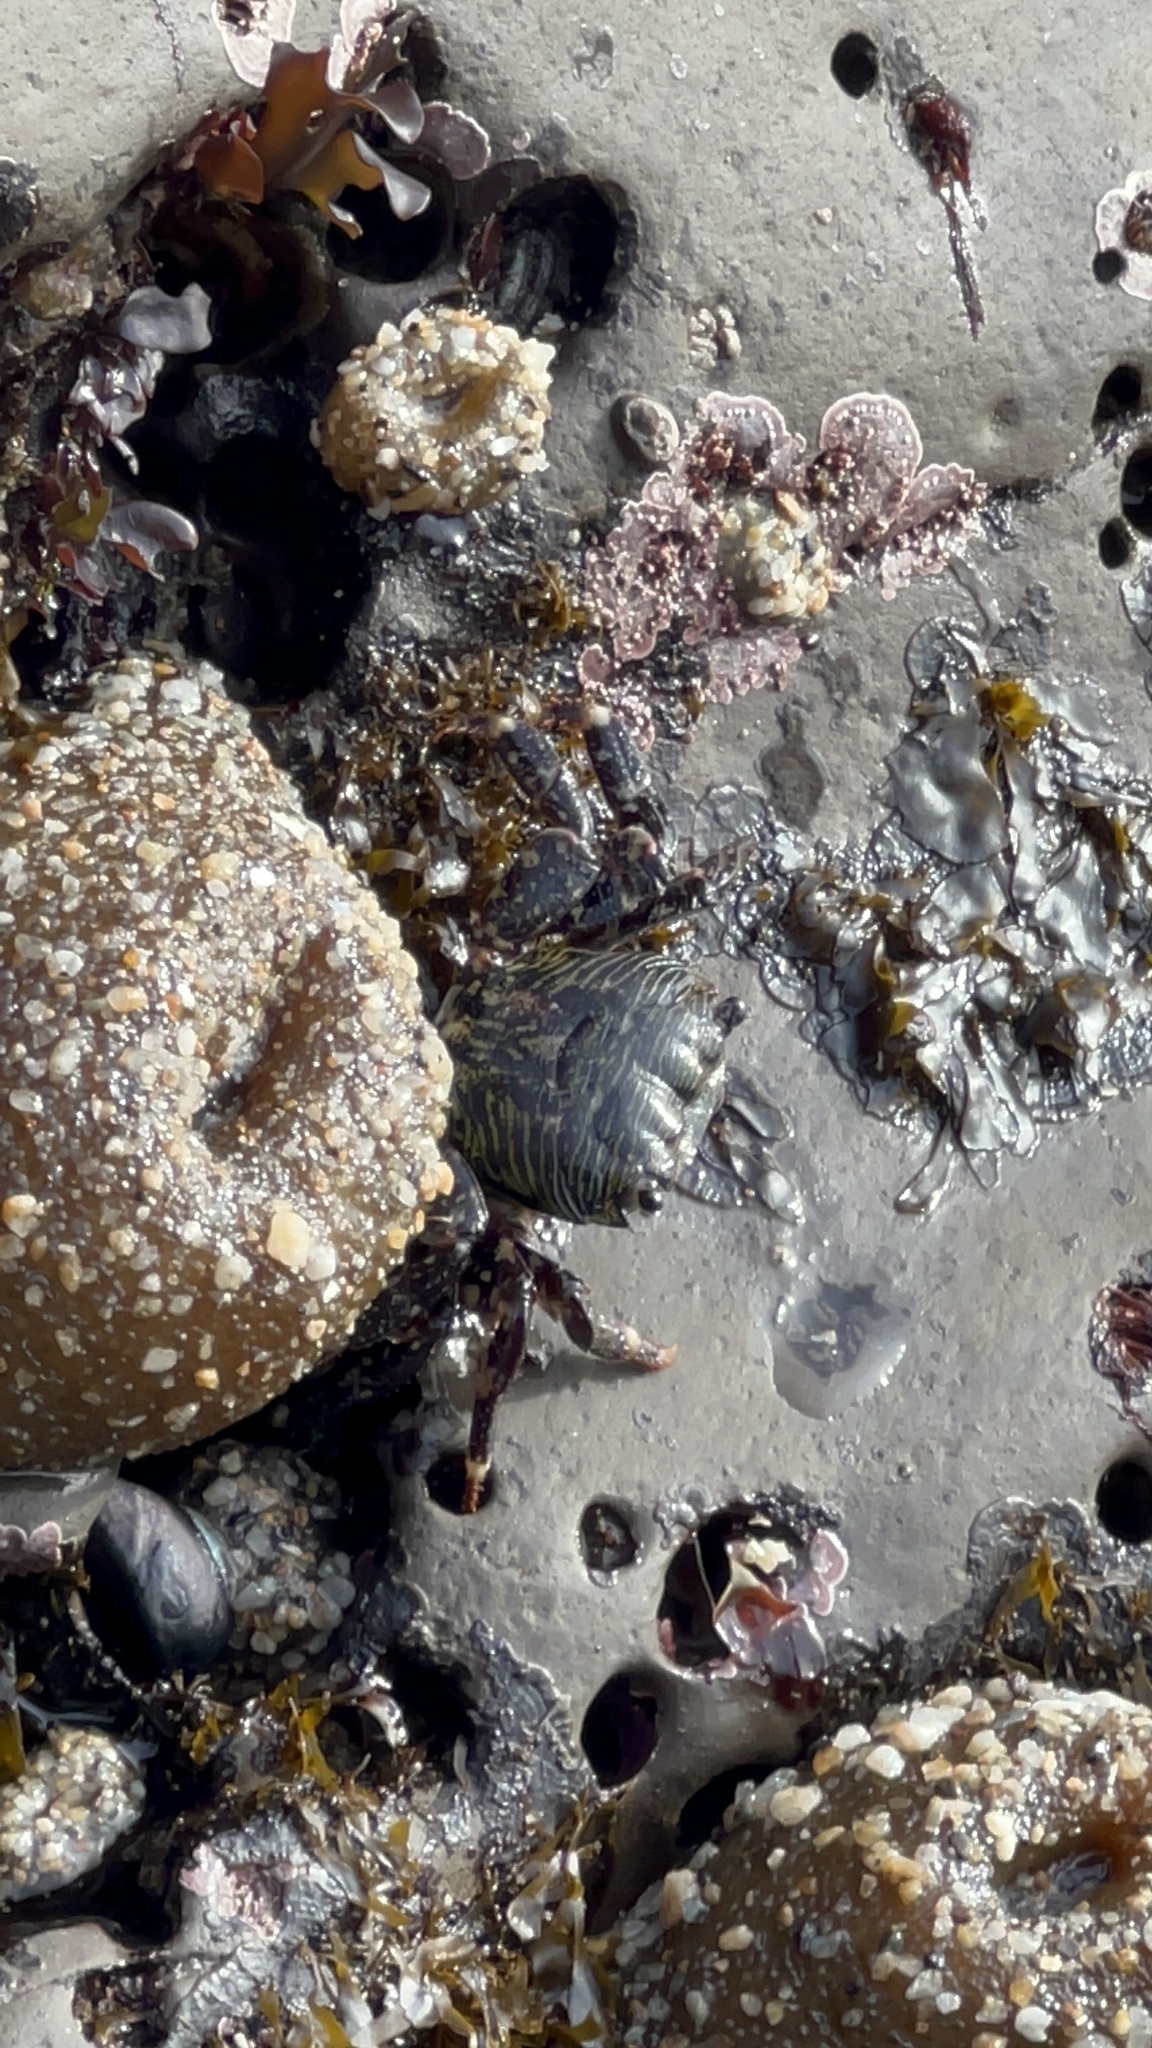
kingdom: Animalia
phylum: Arthropoda
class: Malacostraca
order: Decapoda
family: Grapsidae
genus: Pachygrapsus
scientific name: Pachygrapsus crassipes
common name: Striped shore crab
